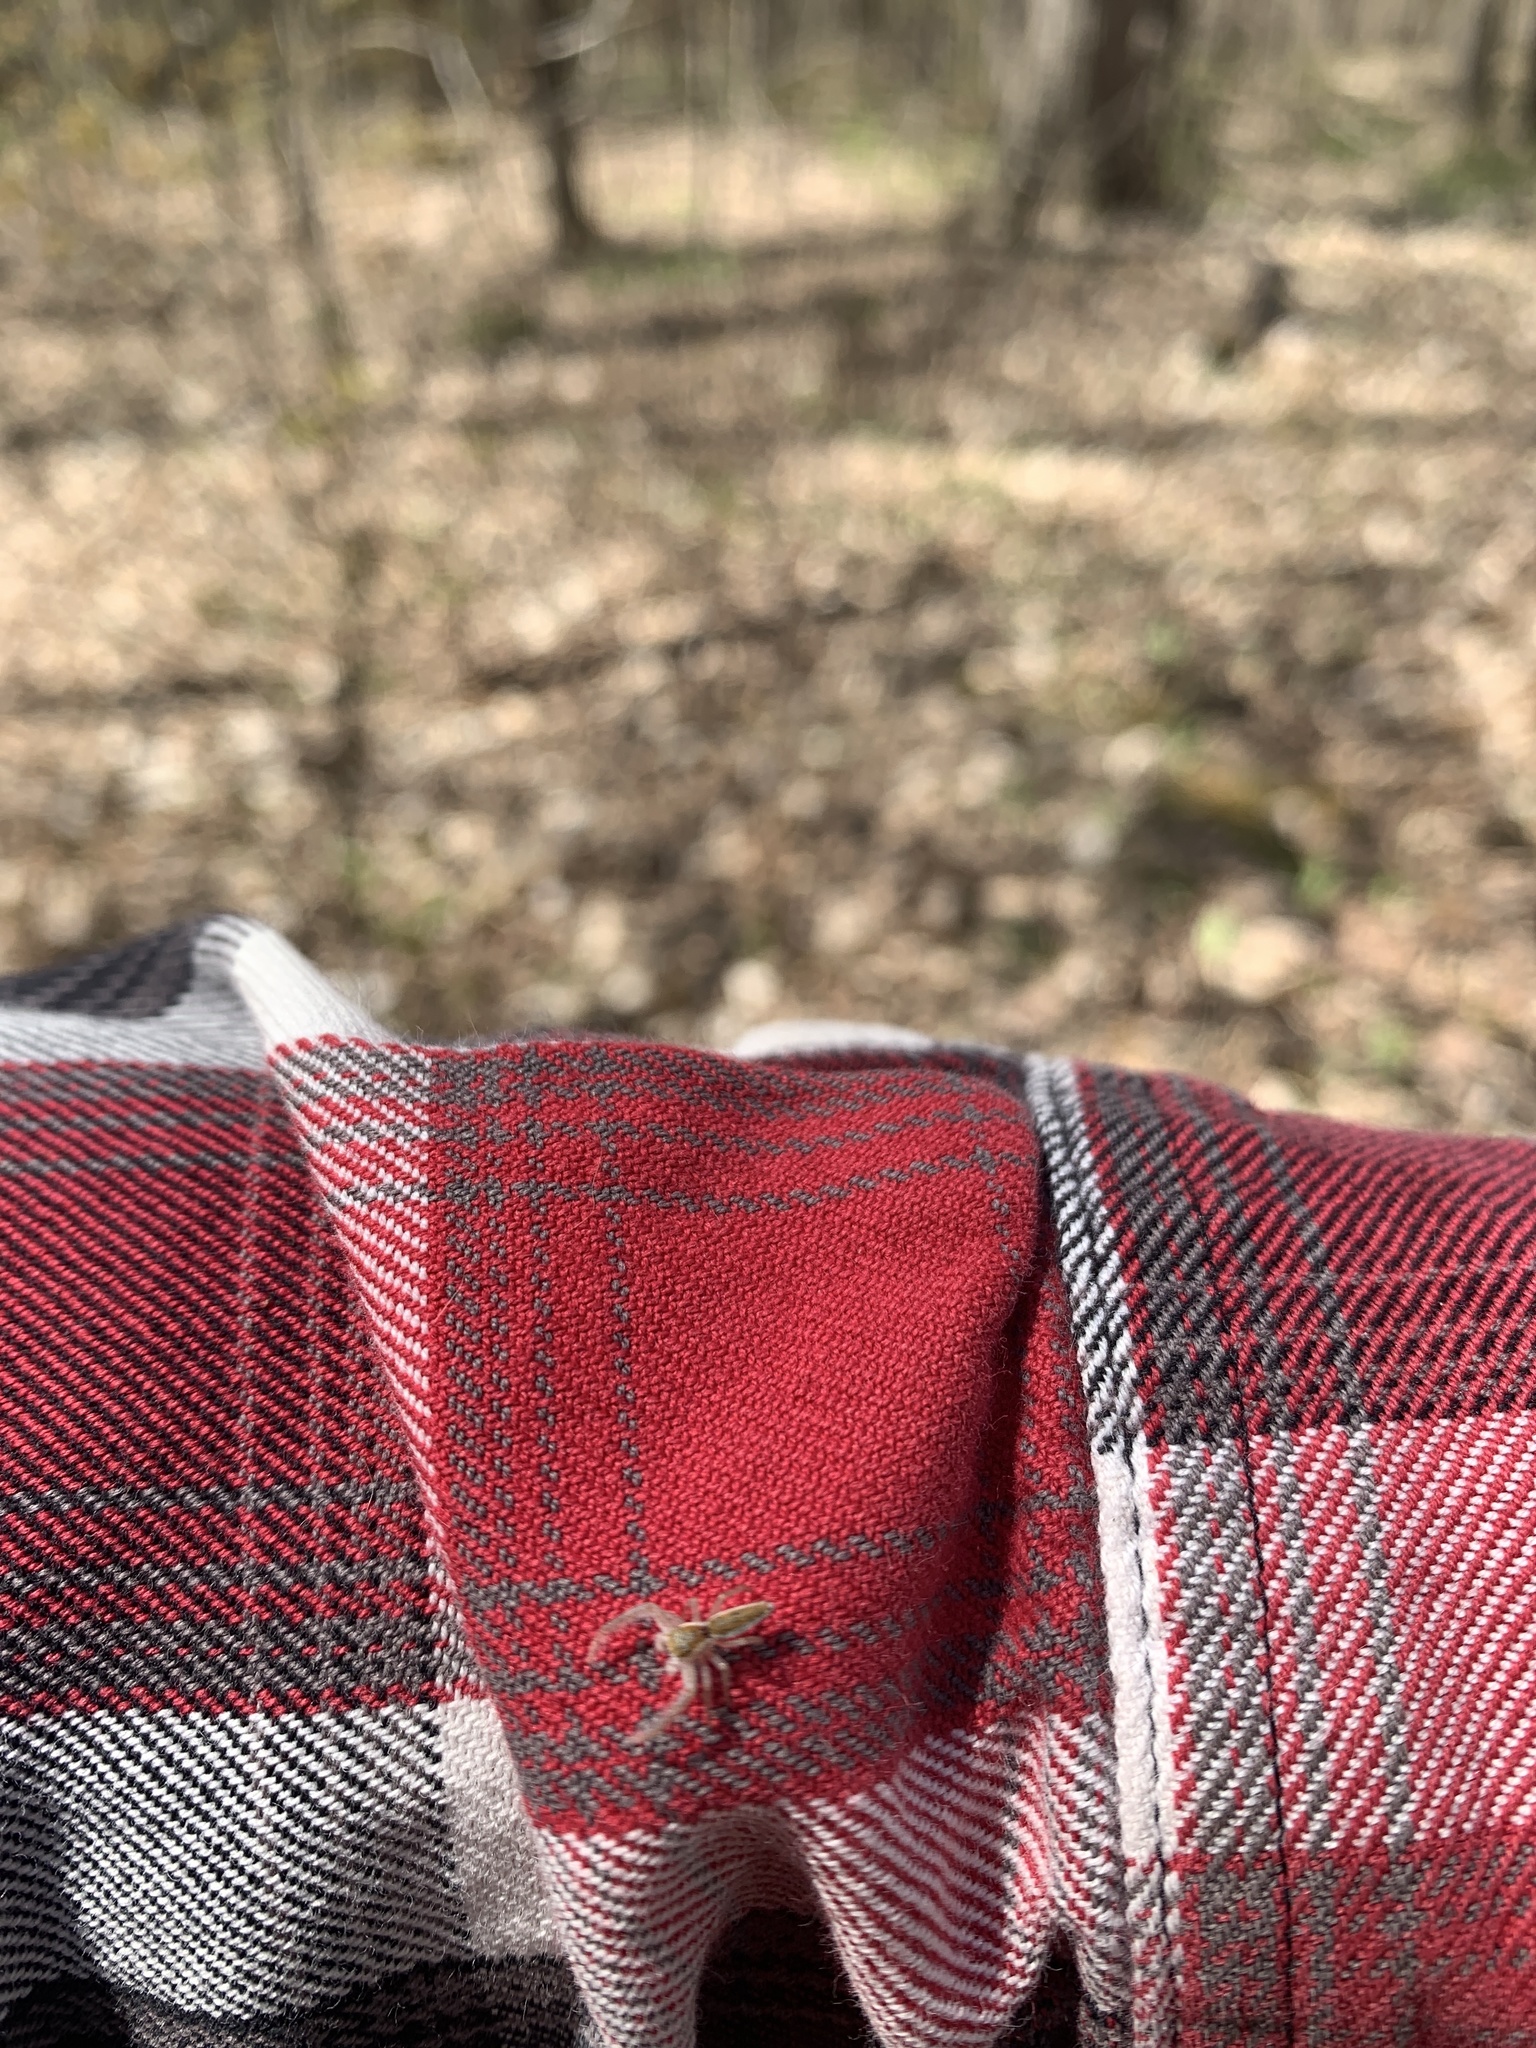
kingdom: Animalia
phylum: Arthropoda
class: Arachnida
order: Araneae
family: Salticidae
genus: Hentzia
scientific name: Hentzia mitrata
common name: White-jawed jumping spider
